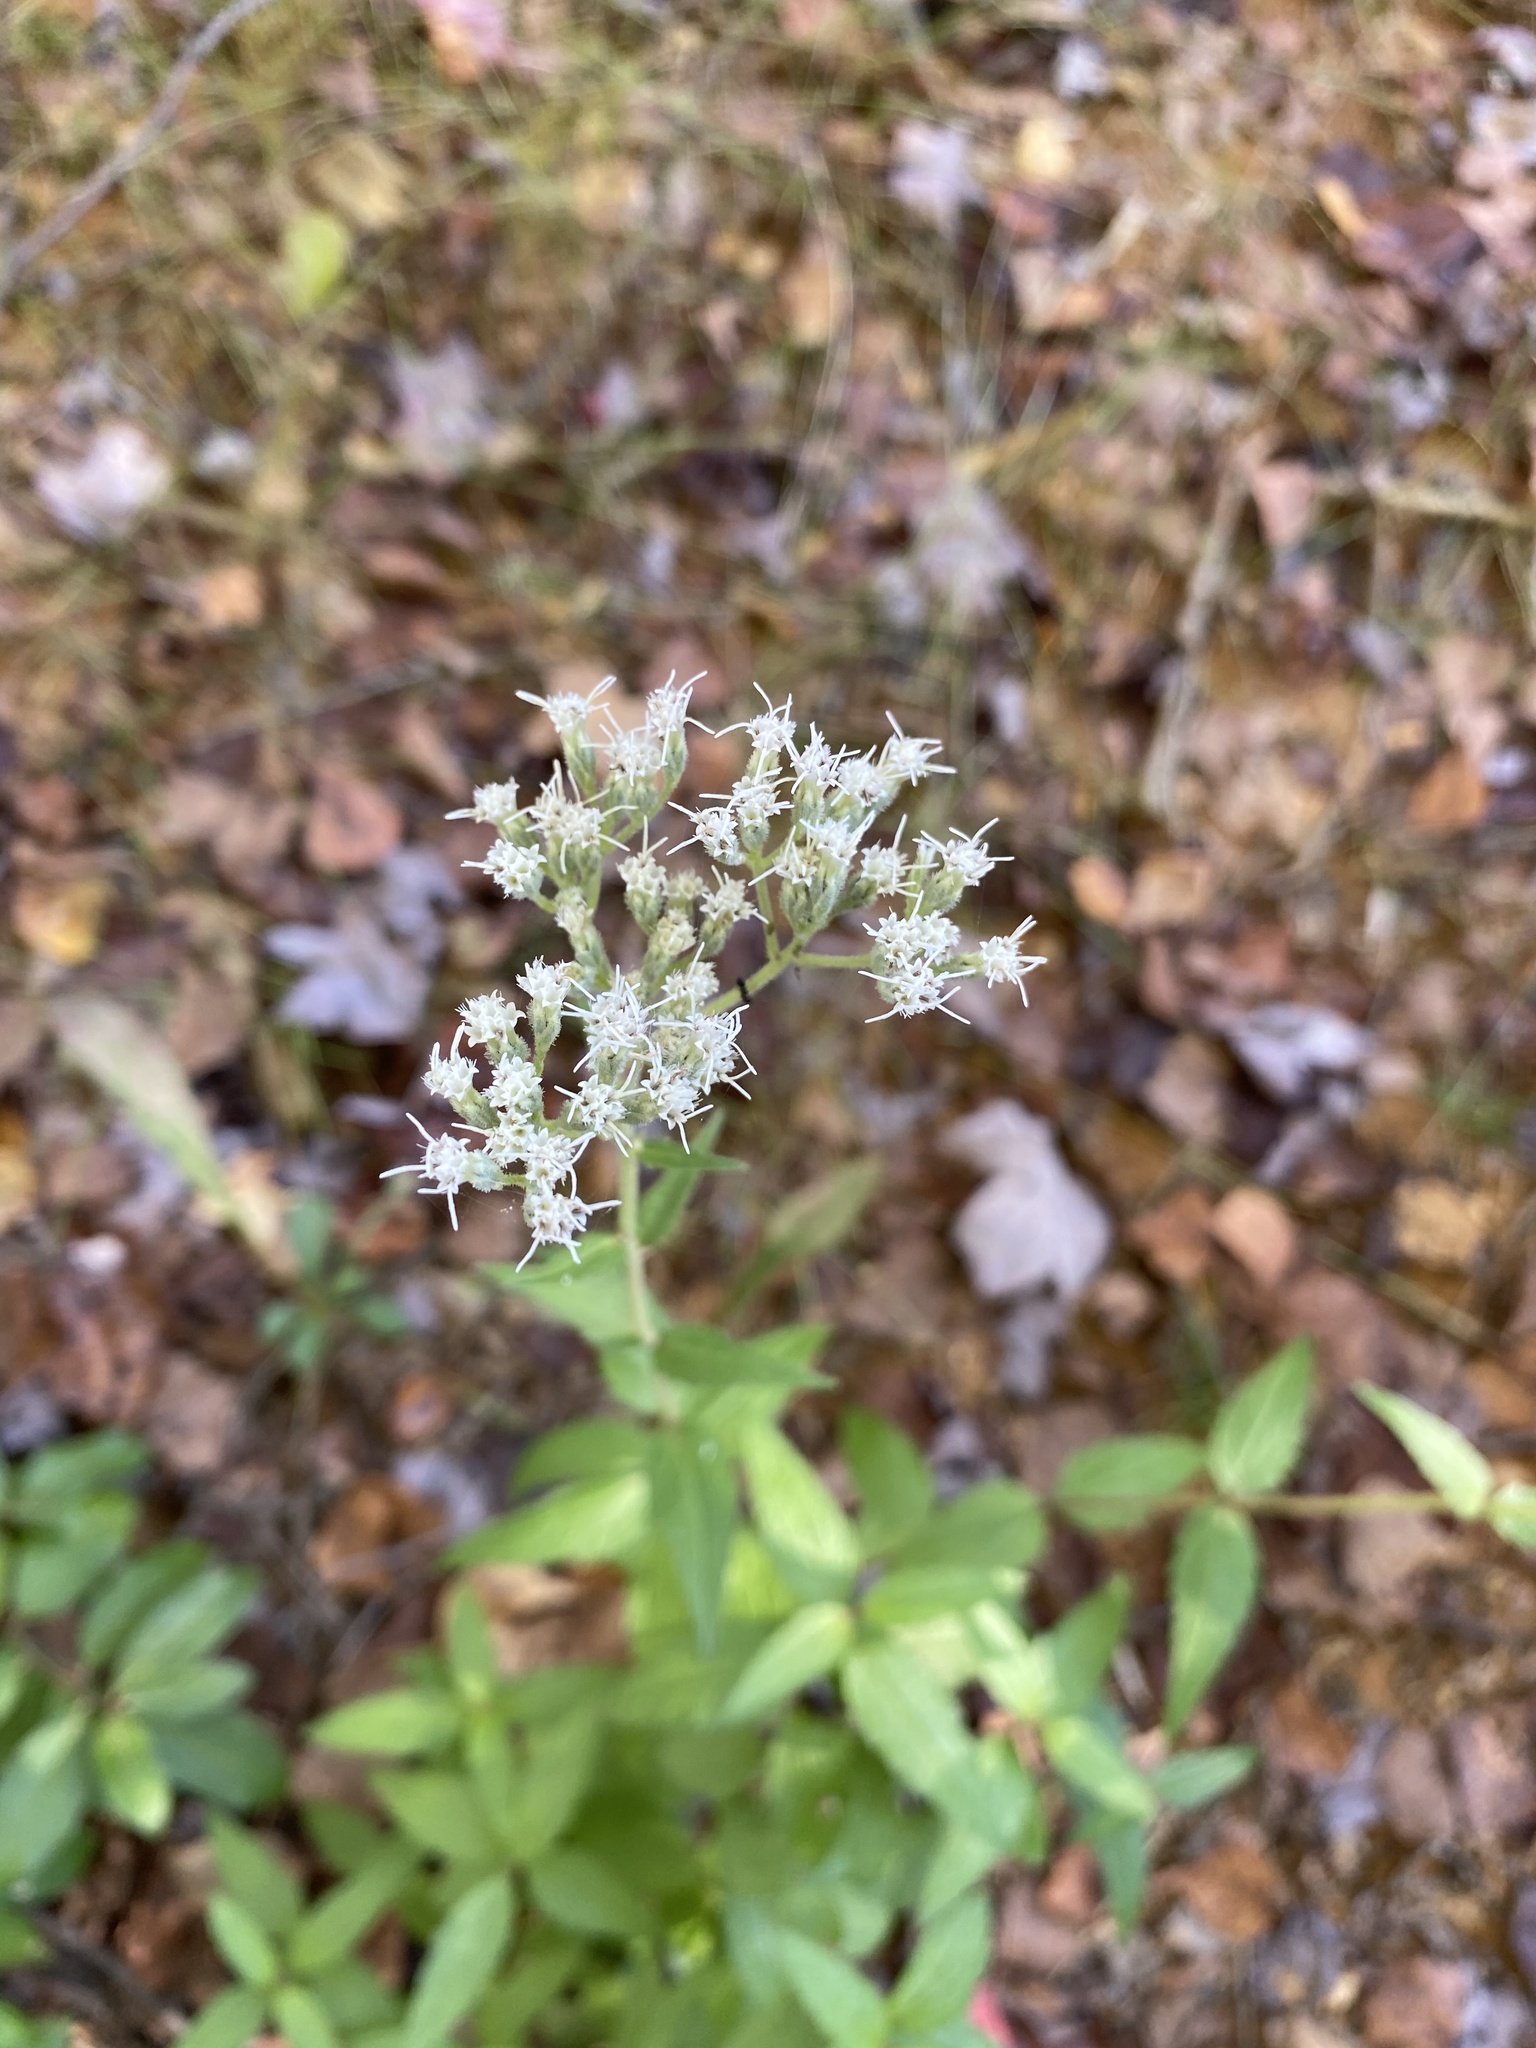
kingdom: Plantae
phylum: Tracheophyta
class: Magnoliopsida
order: Asterales
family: Asteraceae
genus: Eupatorium
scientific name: Eupatorium pilosum
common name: Rough boneset
